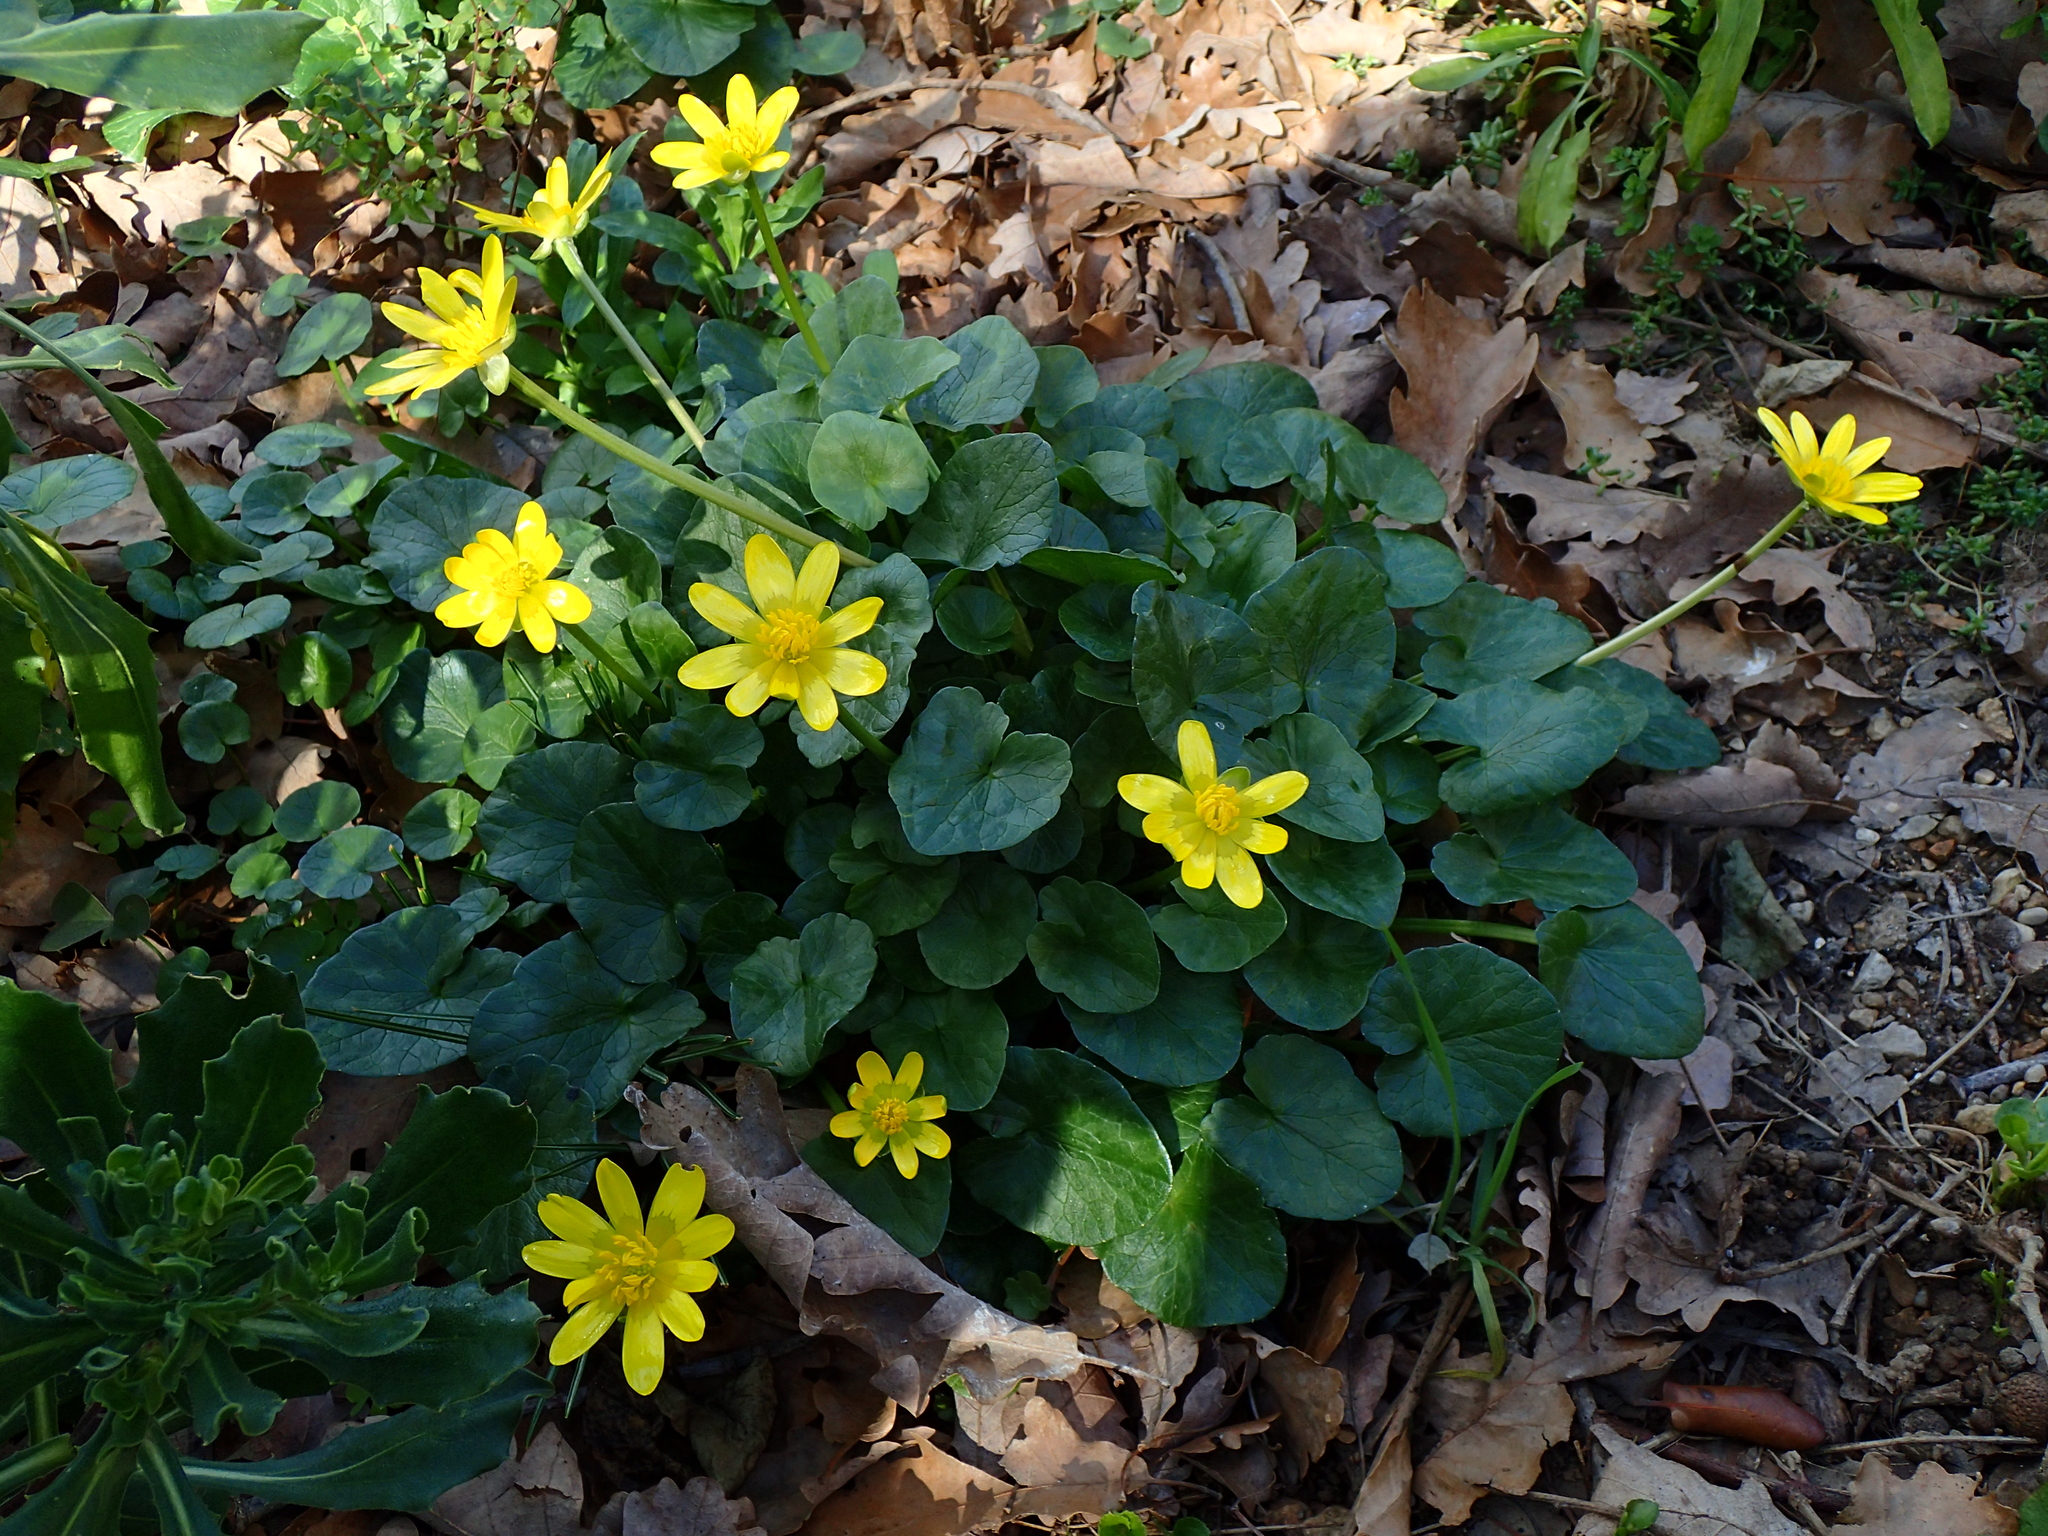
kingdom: Plantae
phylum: Tracheophyta
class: Magnoliopsida
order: Ranunculales
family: Ranunculaceae
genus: Ficaria
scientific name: Ficaria verna
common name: Lesser celandine
